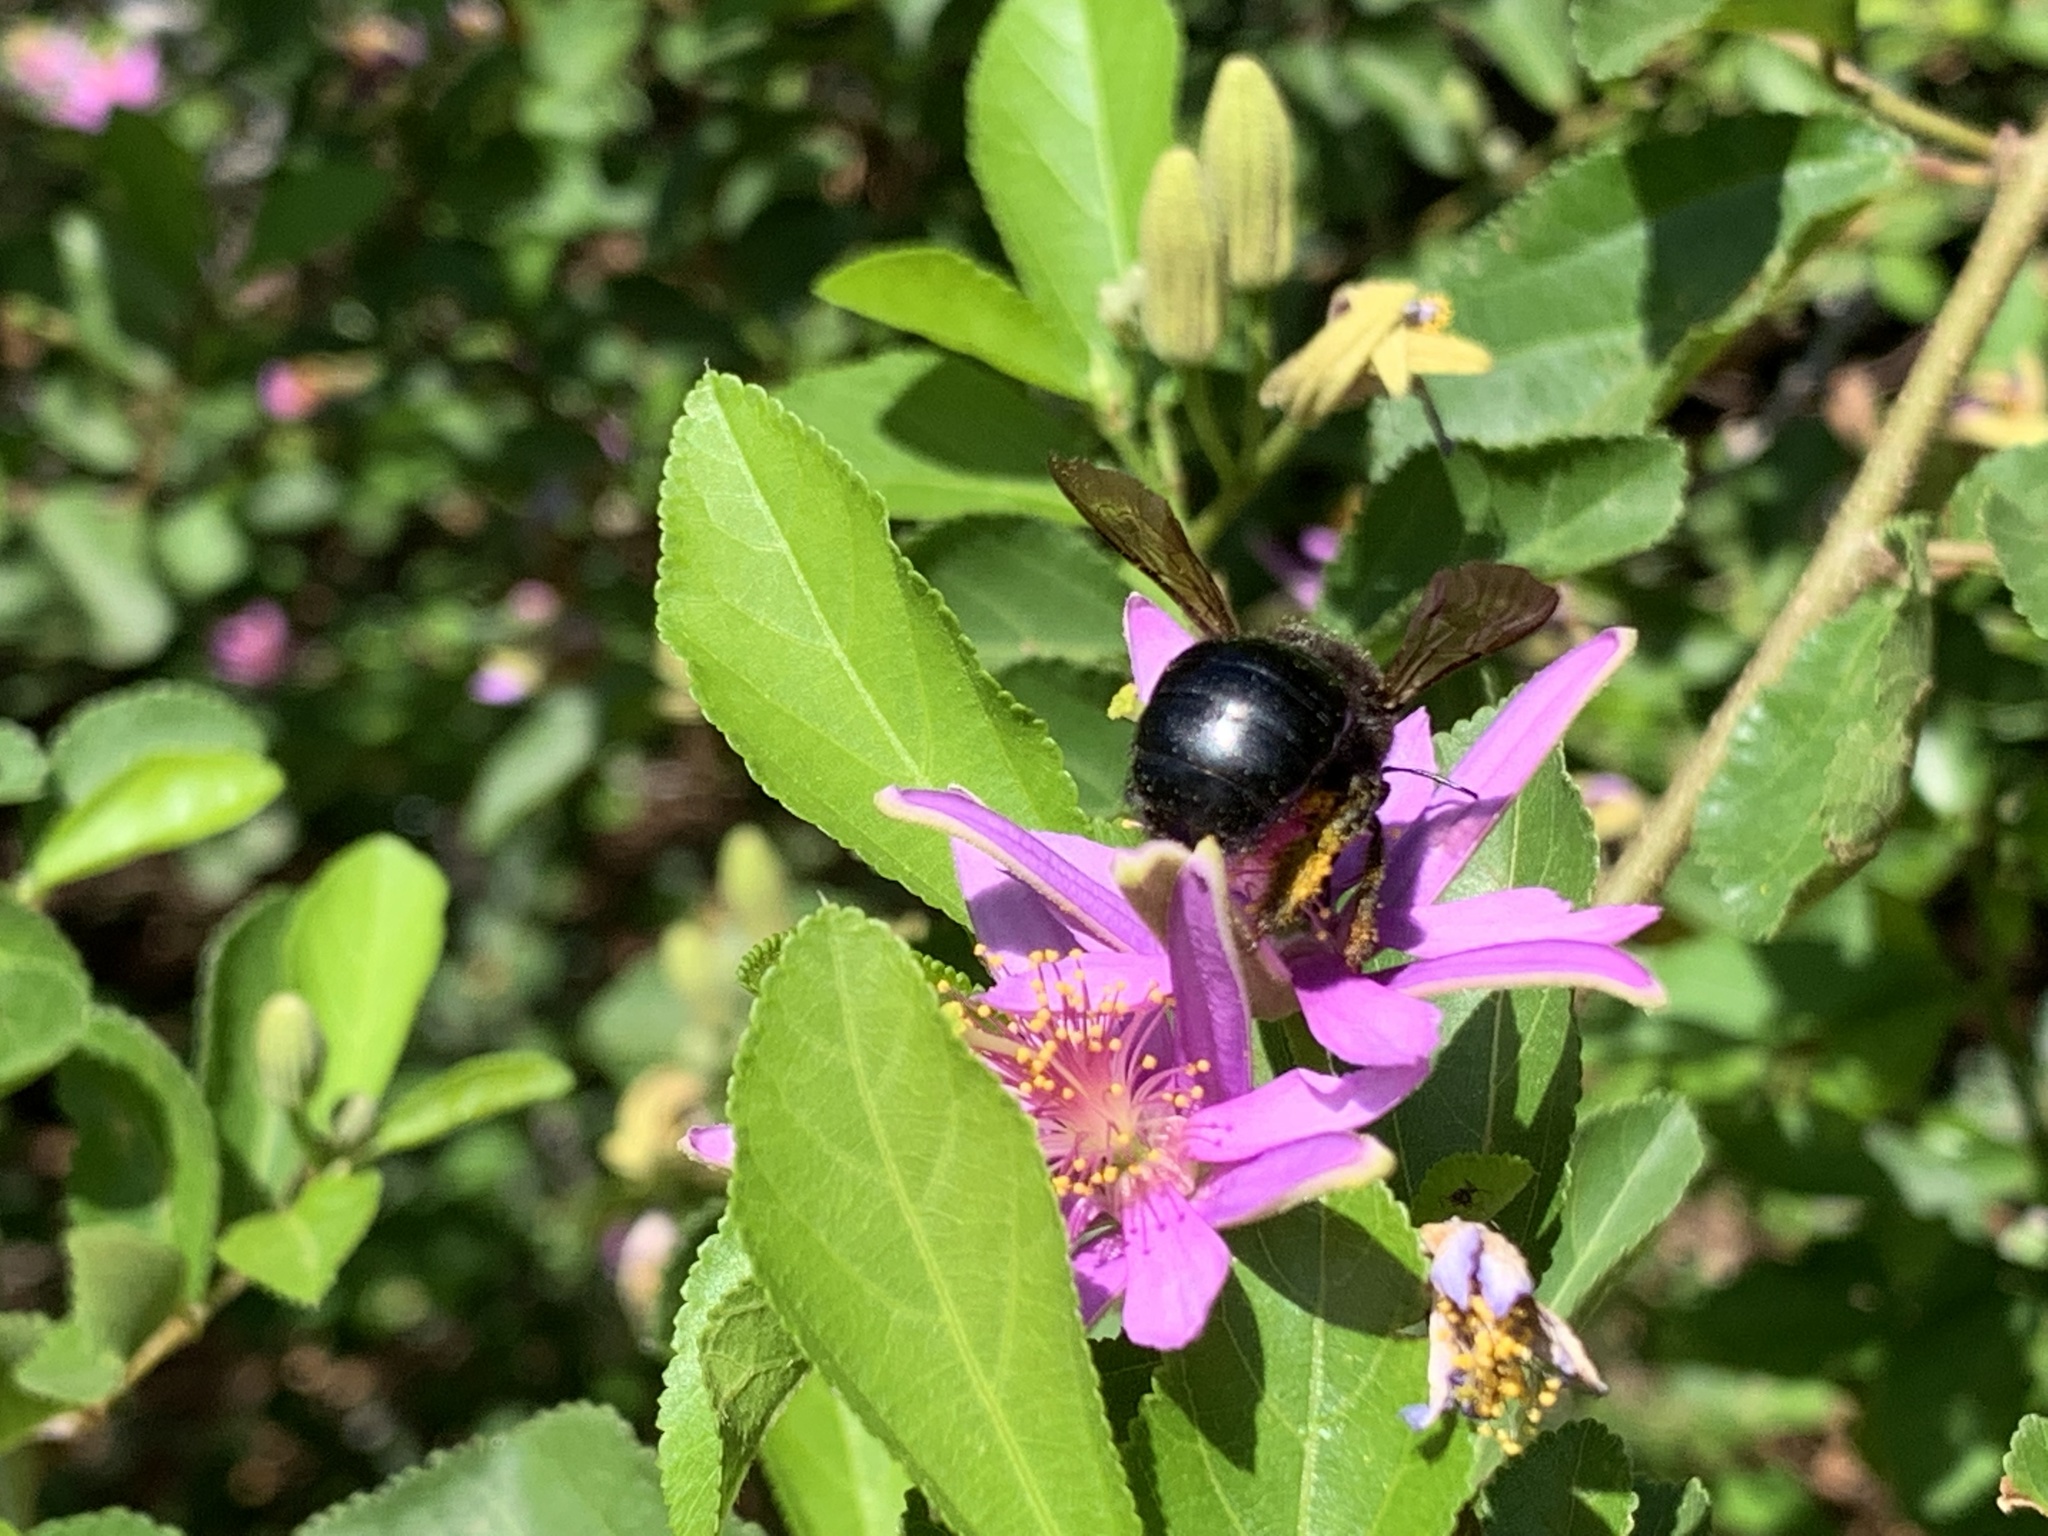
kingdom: Animalia
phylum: Arthropoda
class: Insecta
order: Hymenoptera
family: Apidae
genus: Xylocopa
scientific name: Xylocopa tabaniformis
